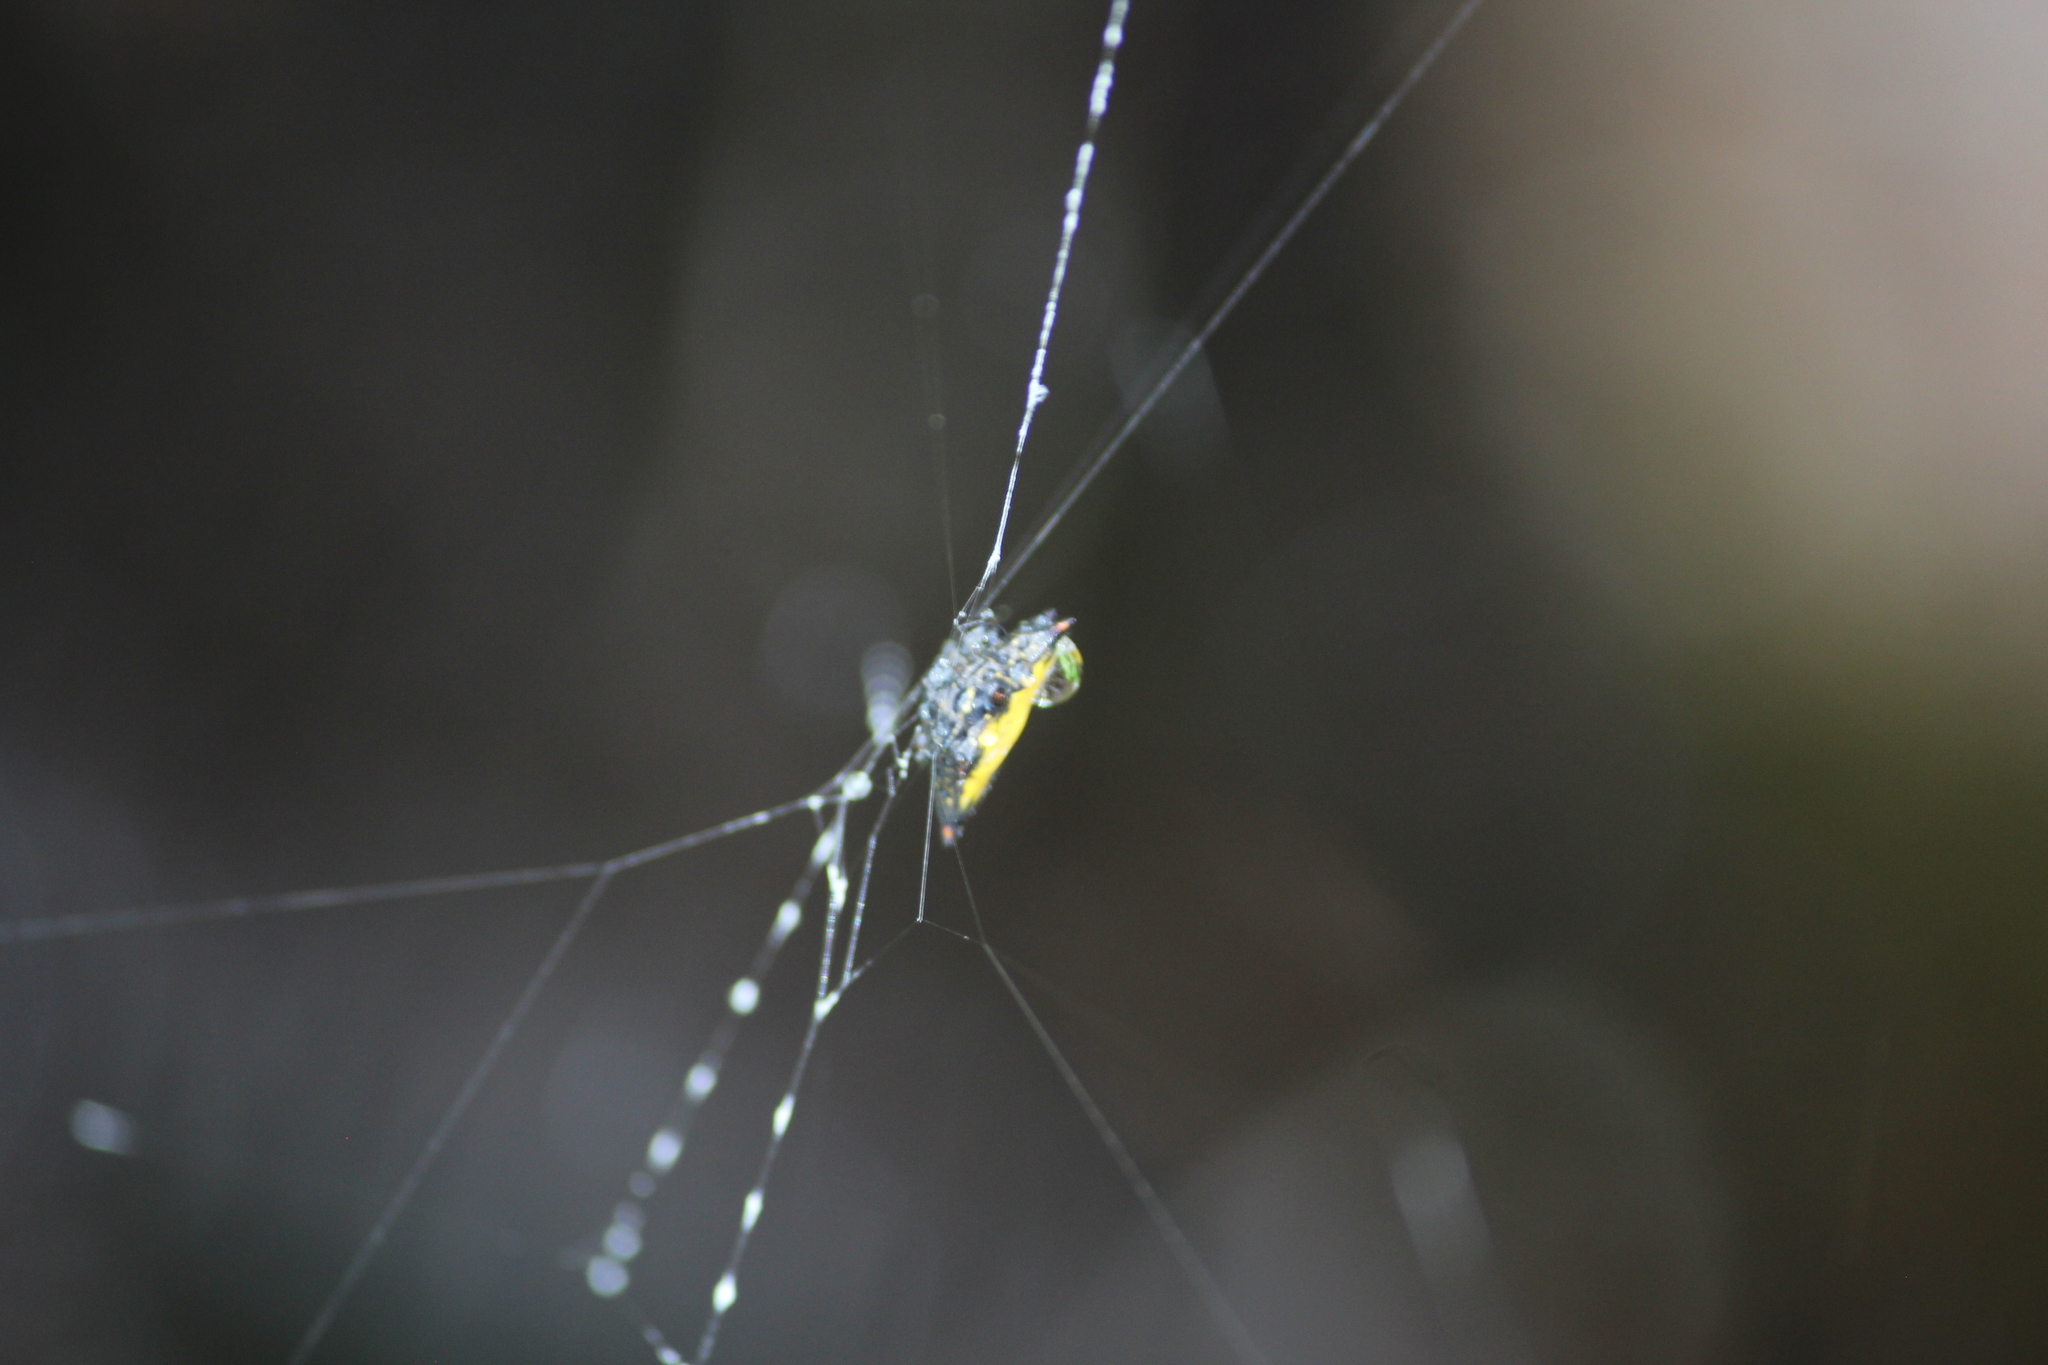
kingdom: Animalia
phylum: Arthropoda
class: Arachnida
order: Araneae
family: Araneidae
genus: Gasteracantha
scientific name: Gasteracantha cancriformis
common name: Orb weavers
